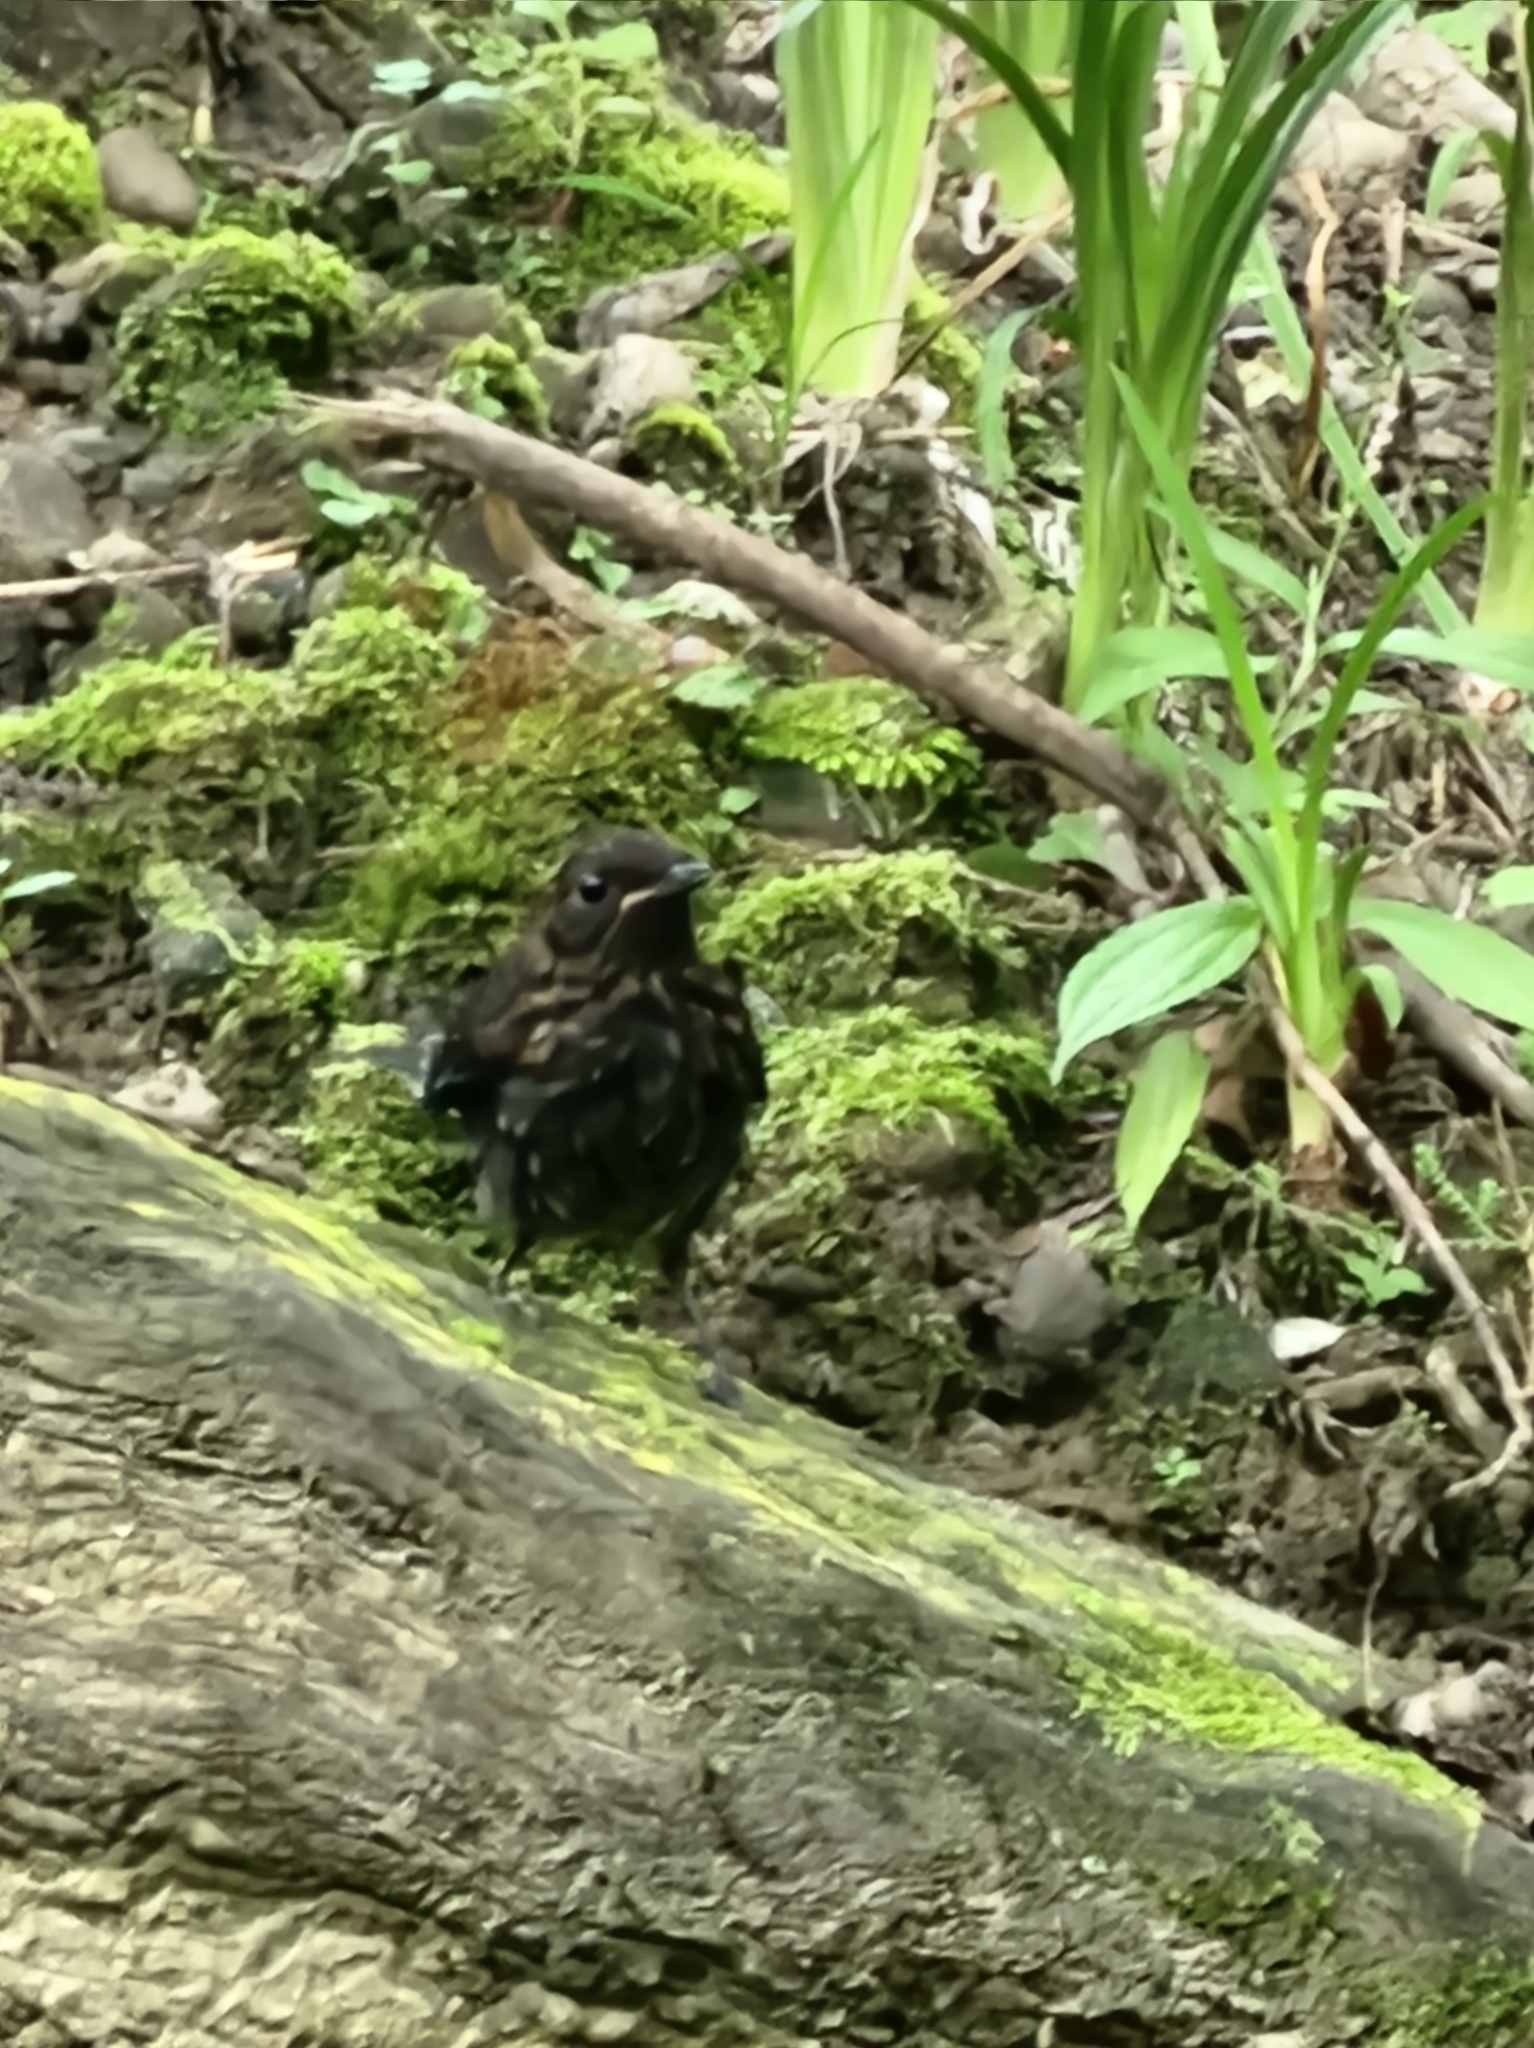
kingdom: Animalia
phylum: Chordata
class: Aves
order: Passeriformes
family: Muscicapidae
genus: Myiomela
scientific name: Myiomela leucura
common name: White-tailed robin
